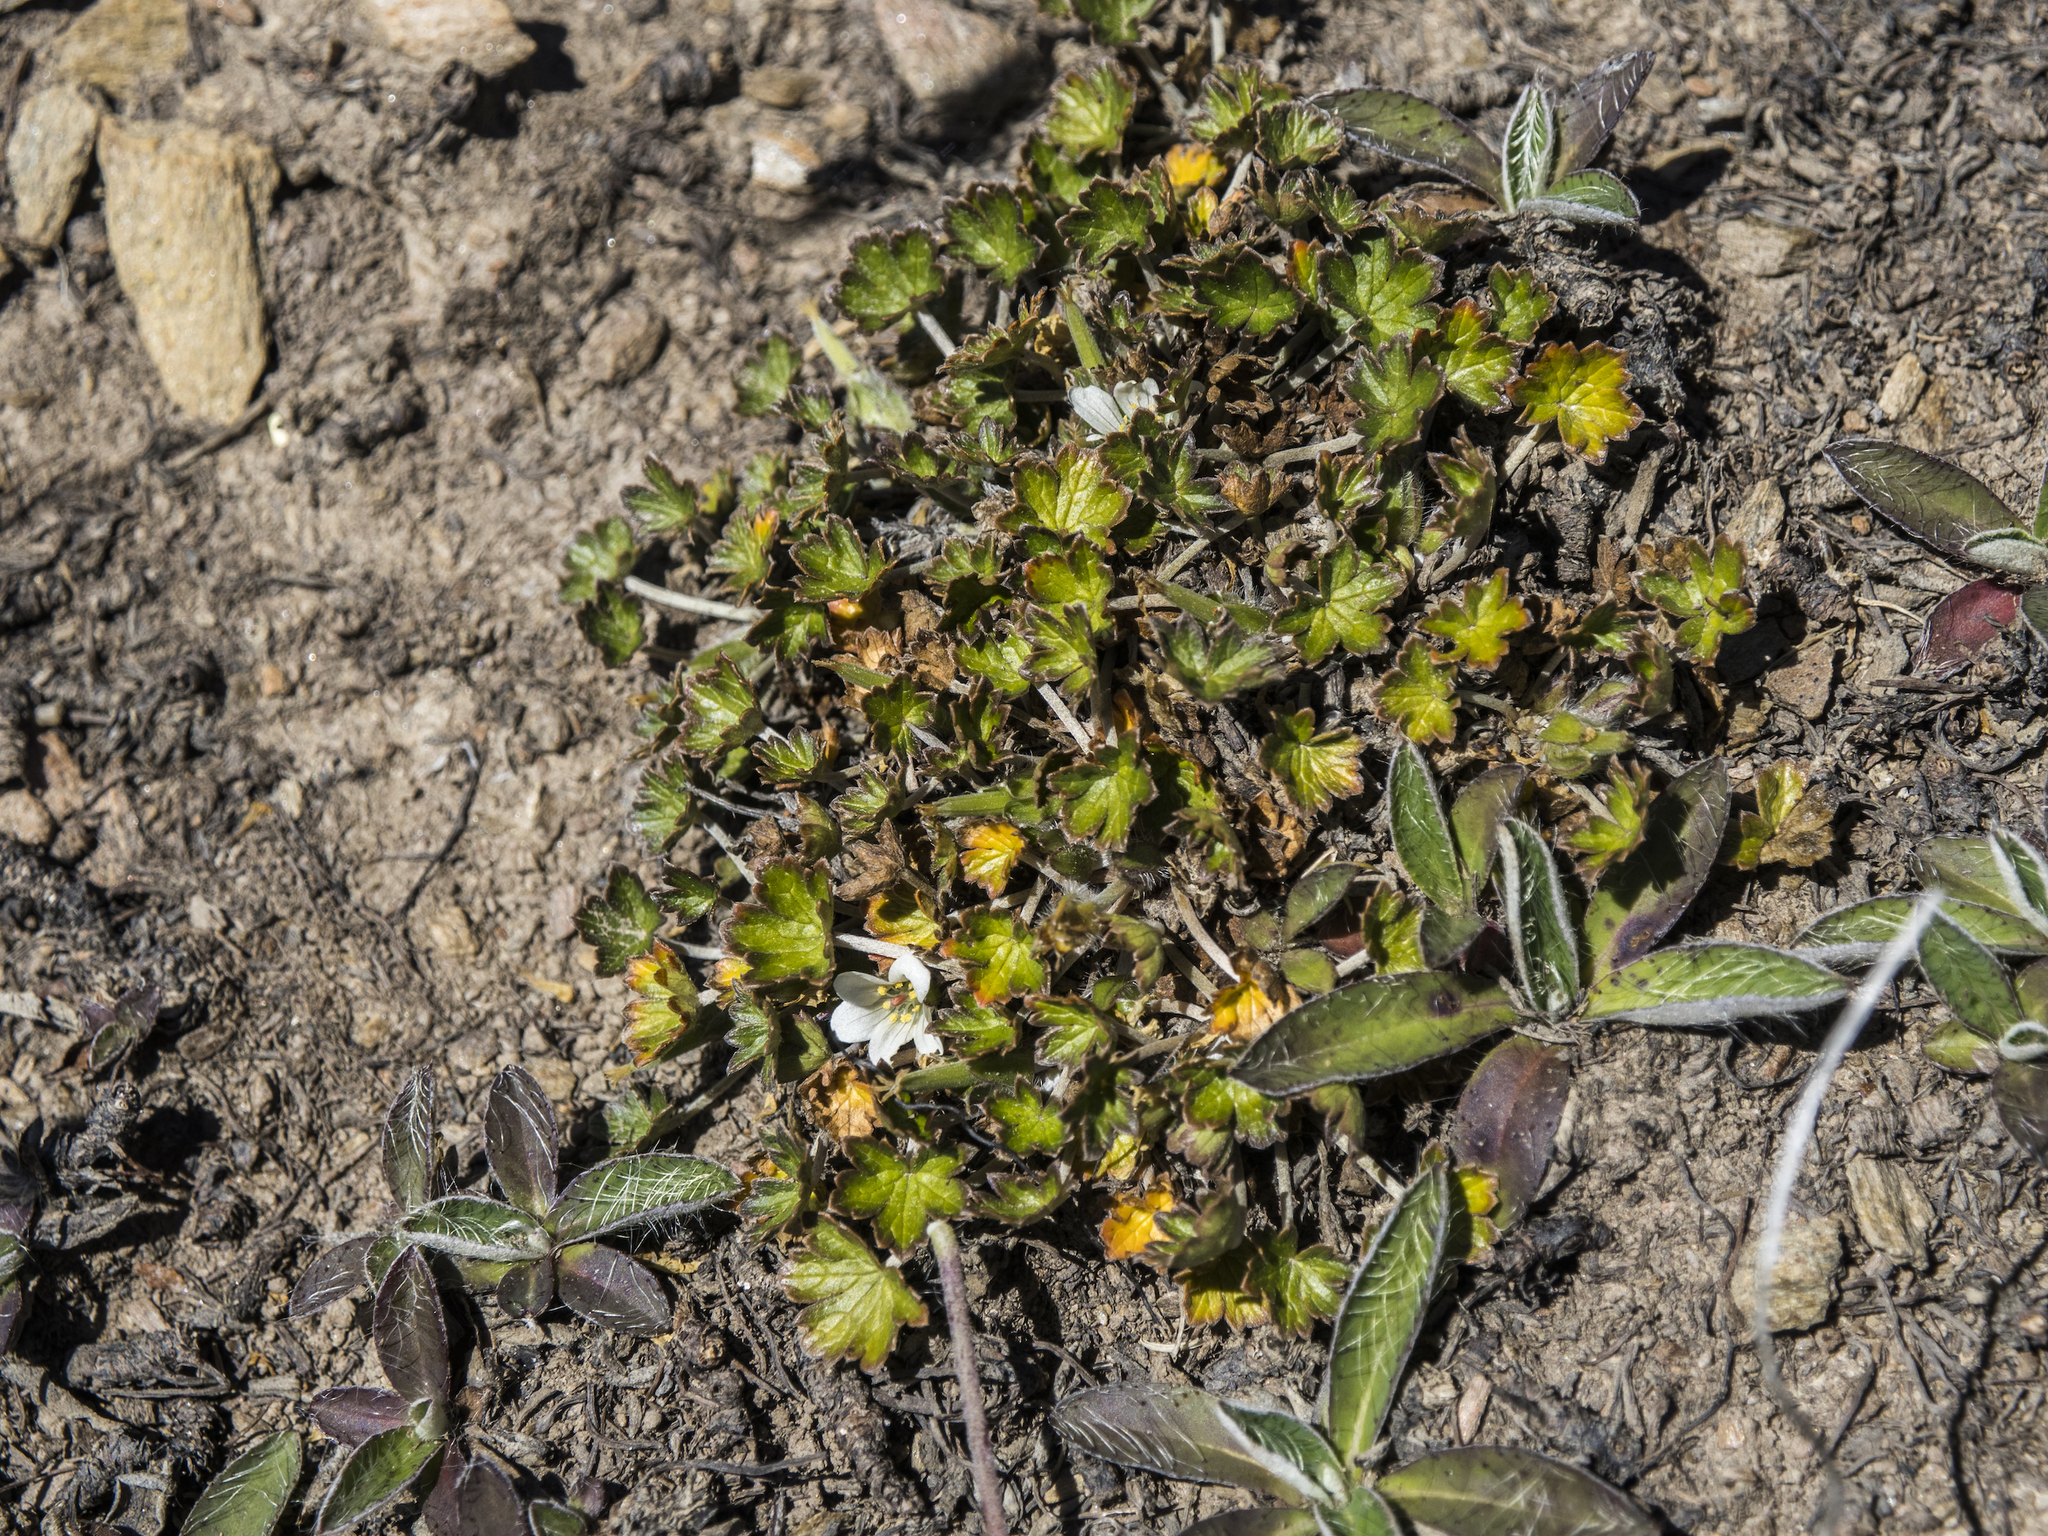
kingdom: Plantae
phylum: Tracheophyta
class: Magnoliopsida
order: Geraniales
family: Geraniaceae
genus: Geranium
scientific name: Geranium brevicaule
